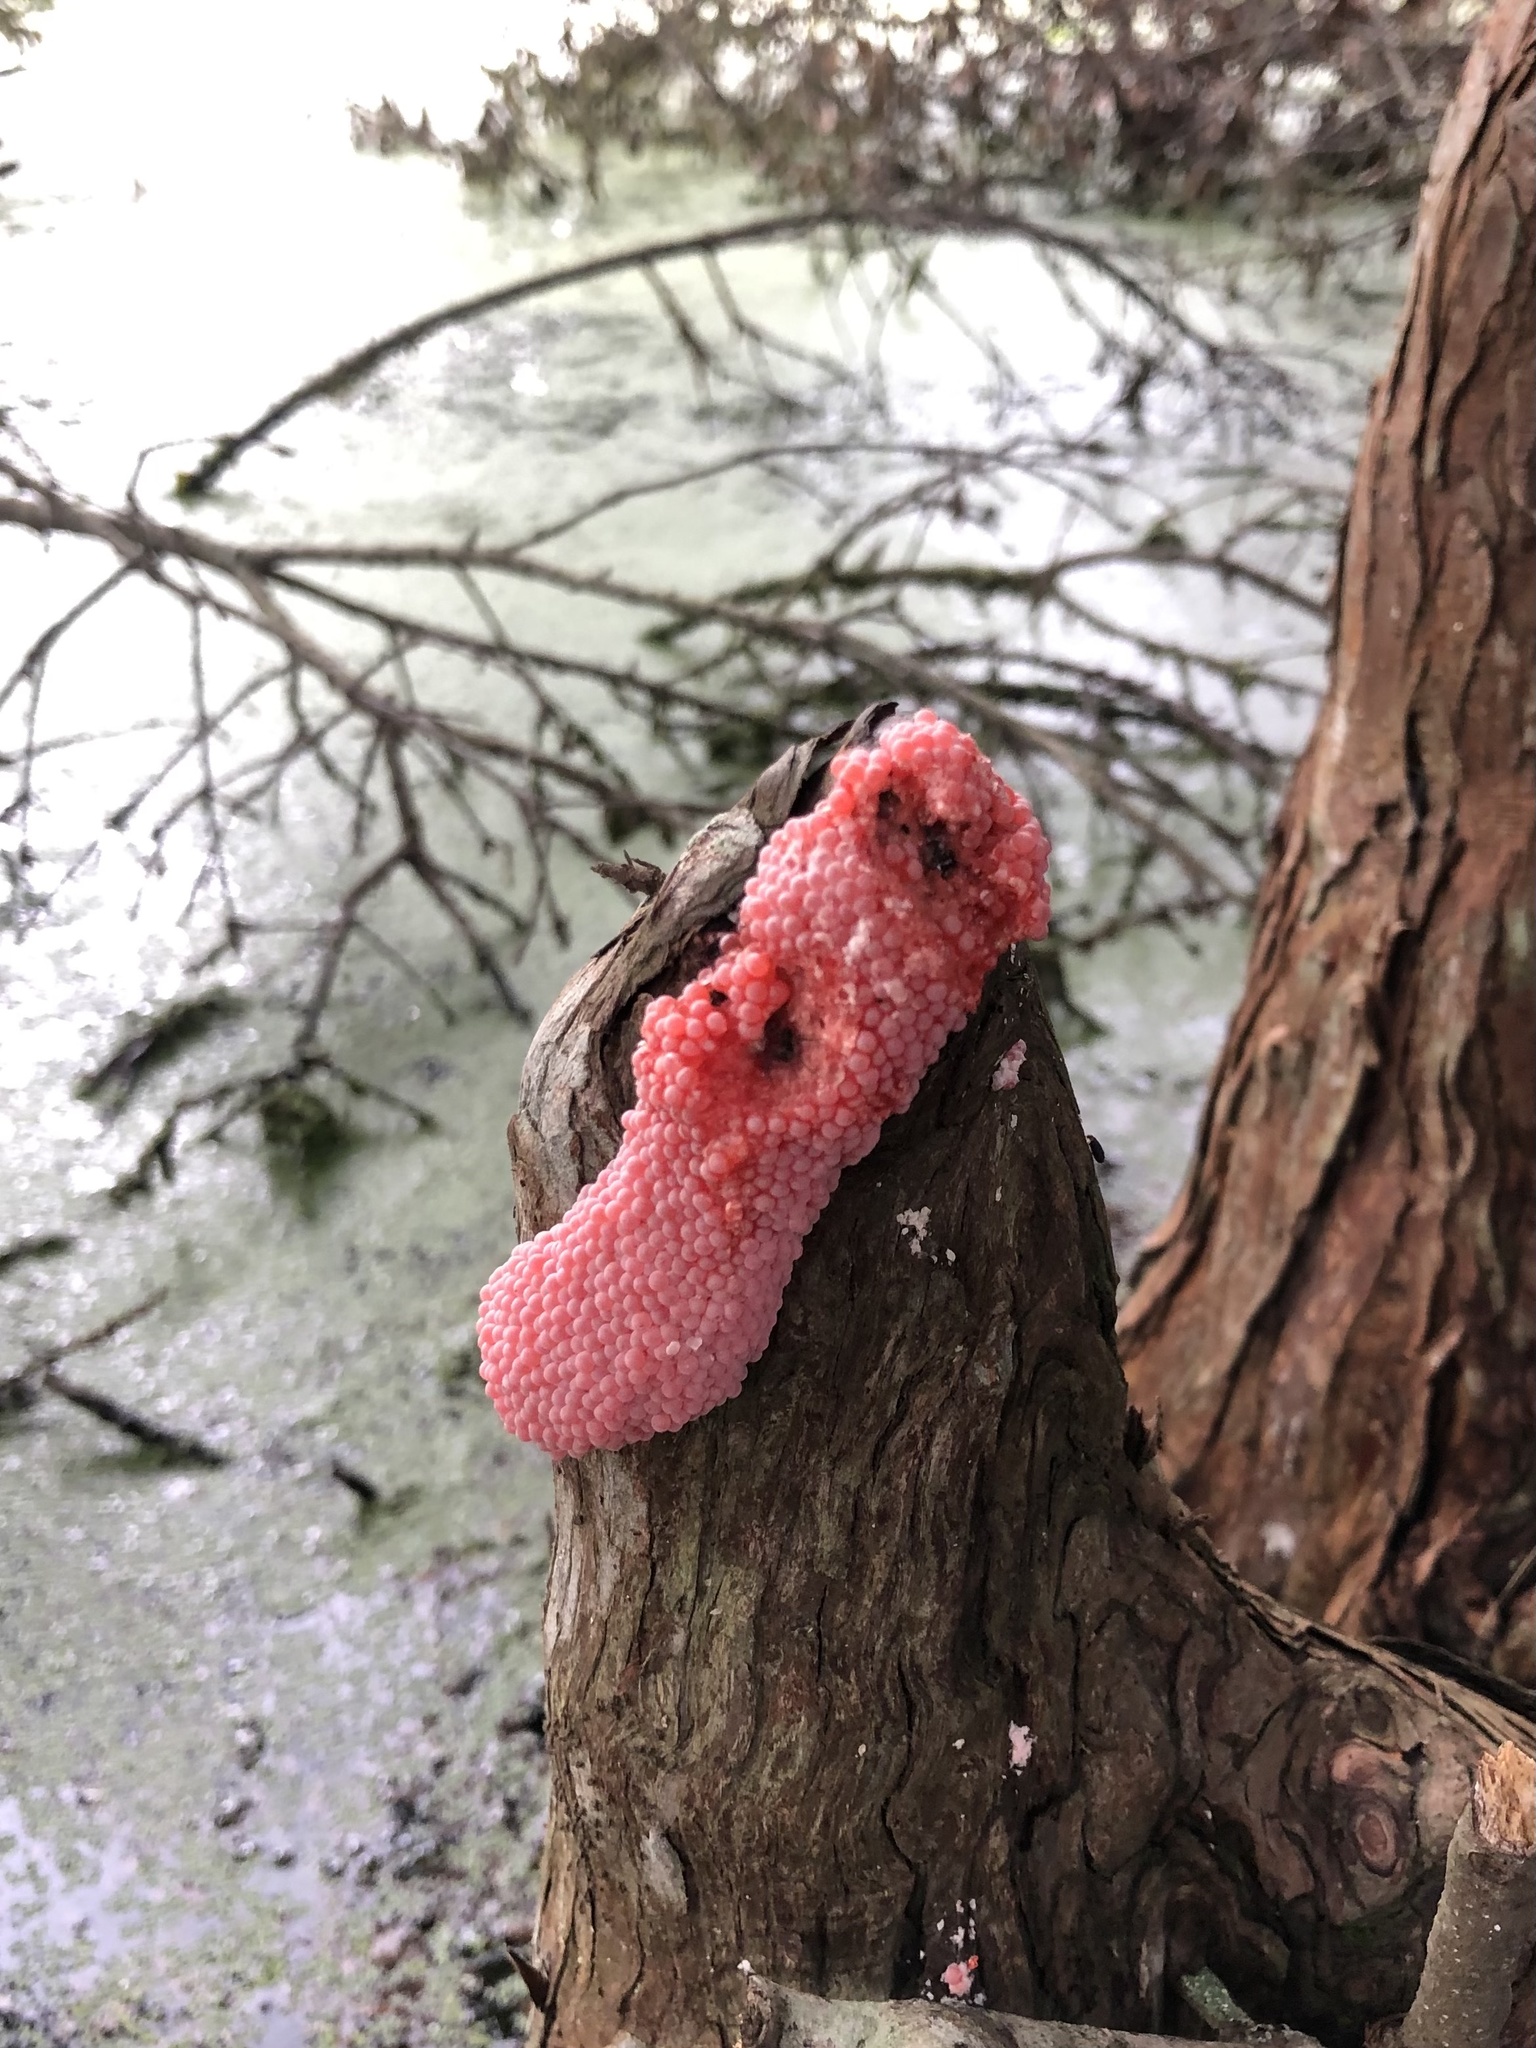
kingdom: Animalia
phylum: Mollusca
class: Gastropoda
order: Architaenioglossa
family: Ampullariidae
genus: Pomacea
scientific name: Pomacea maculata
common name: Giant applesnail
